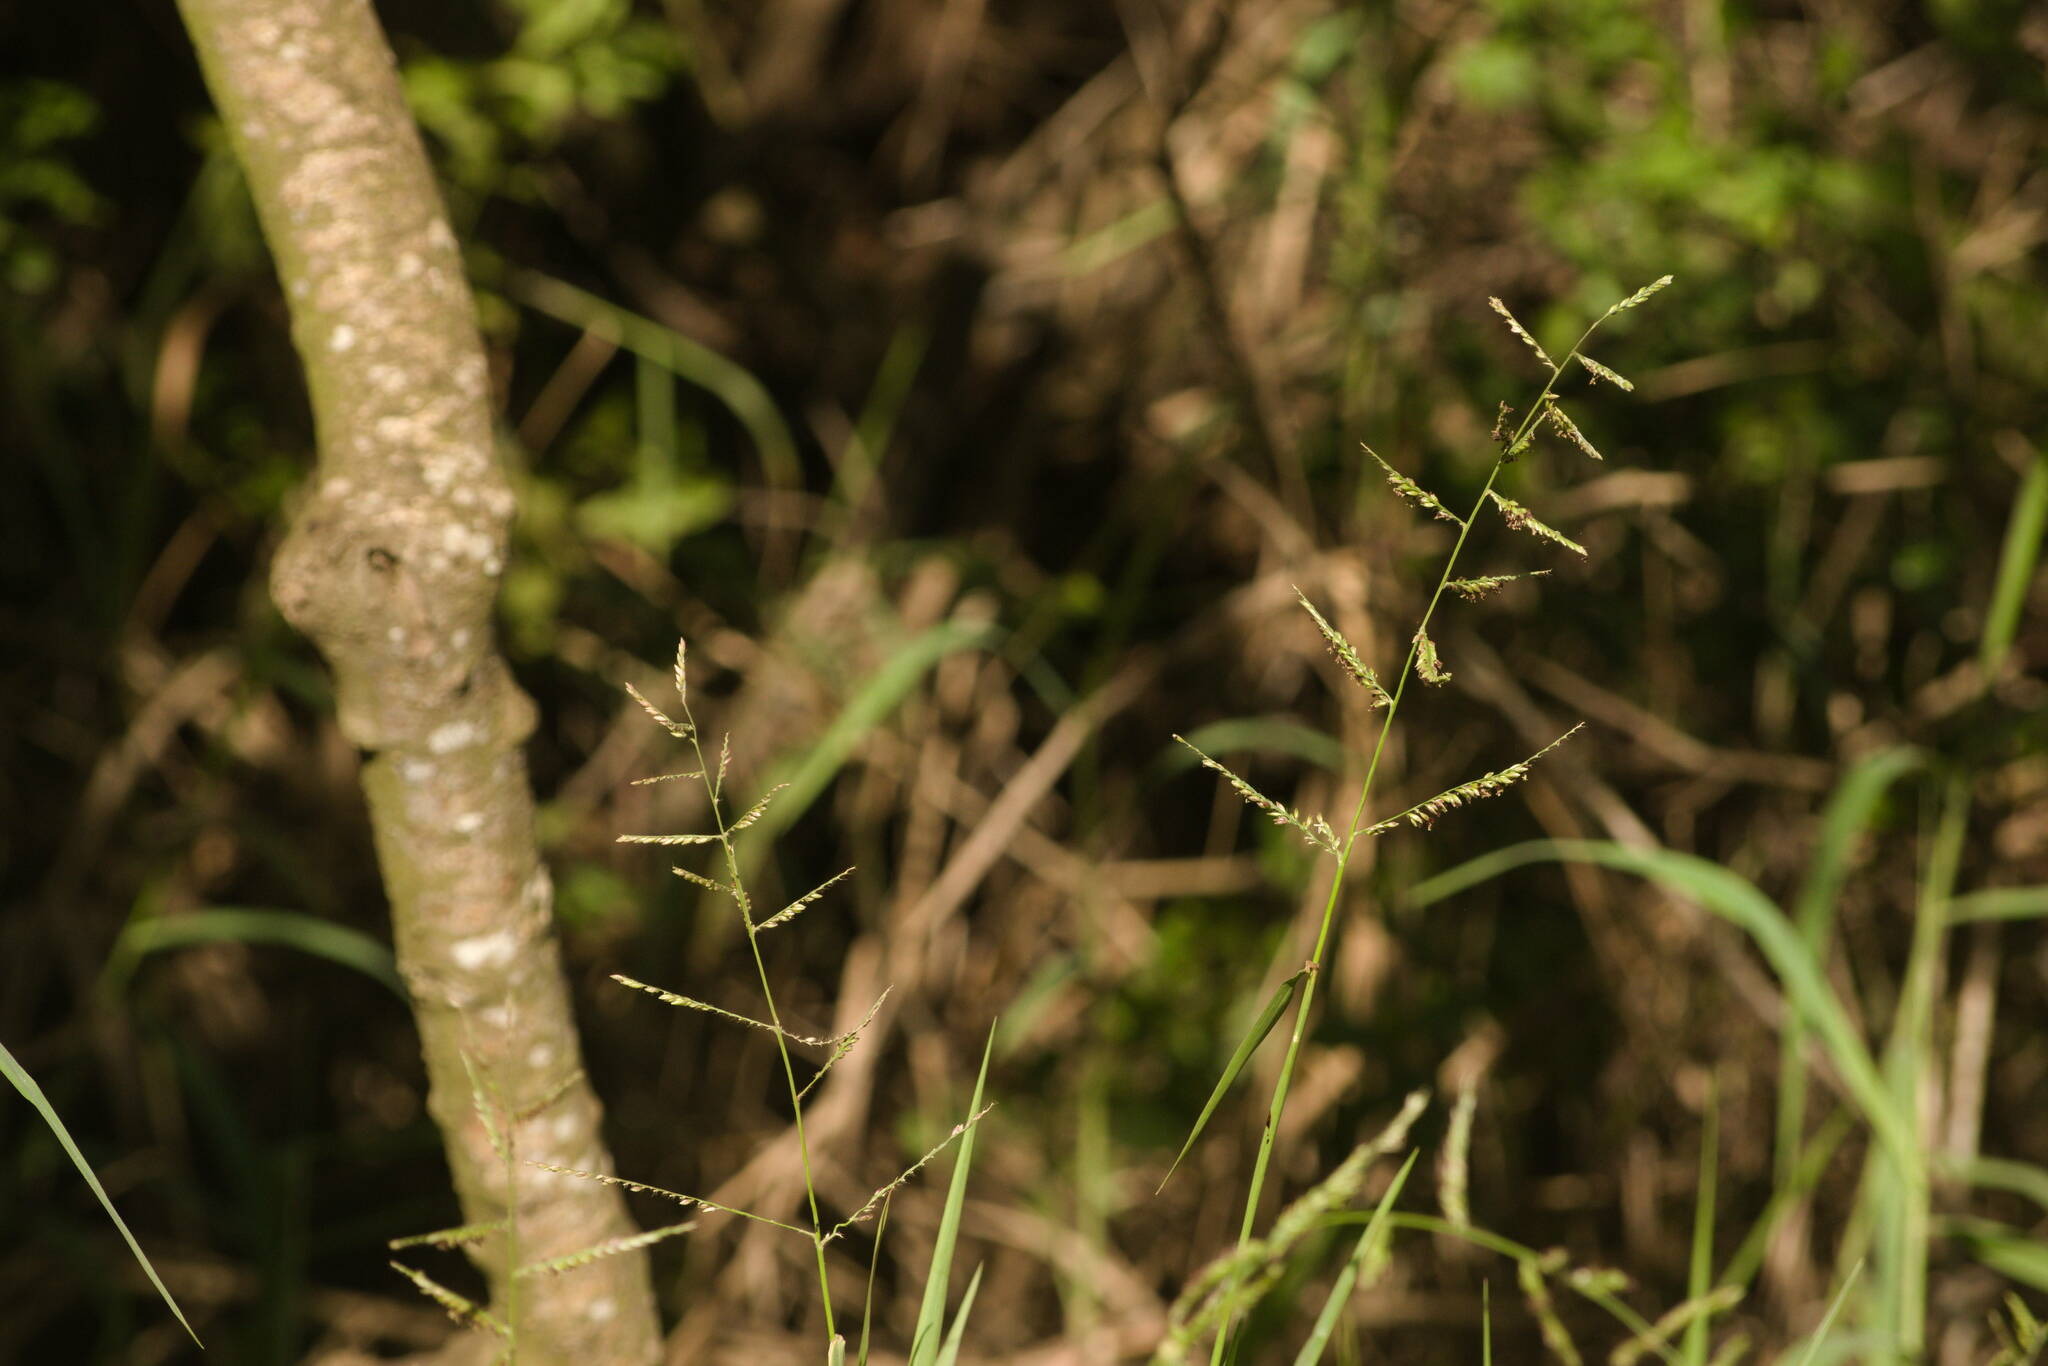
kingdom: Plantae
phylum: Tracheophyta
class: Liliopsida
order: Poales
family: Poaceae
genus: Urochloa
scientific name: Urochloa mutica
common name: Para grass
